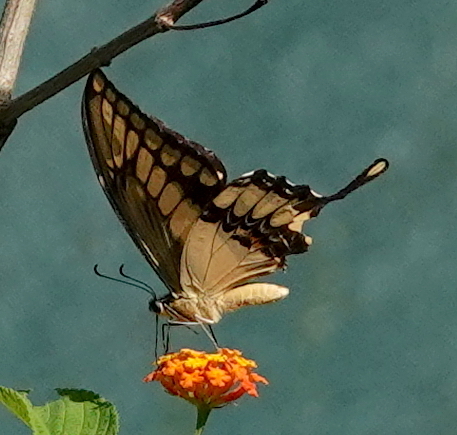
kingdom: Animalia
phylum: Arthropoda
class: Insecta
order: Lepidoptera
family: Papilionidae
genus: Papilio
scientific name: Papilio thoas
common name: King swallowtail
